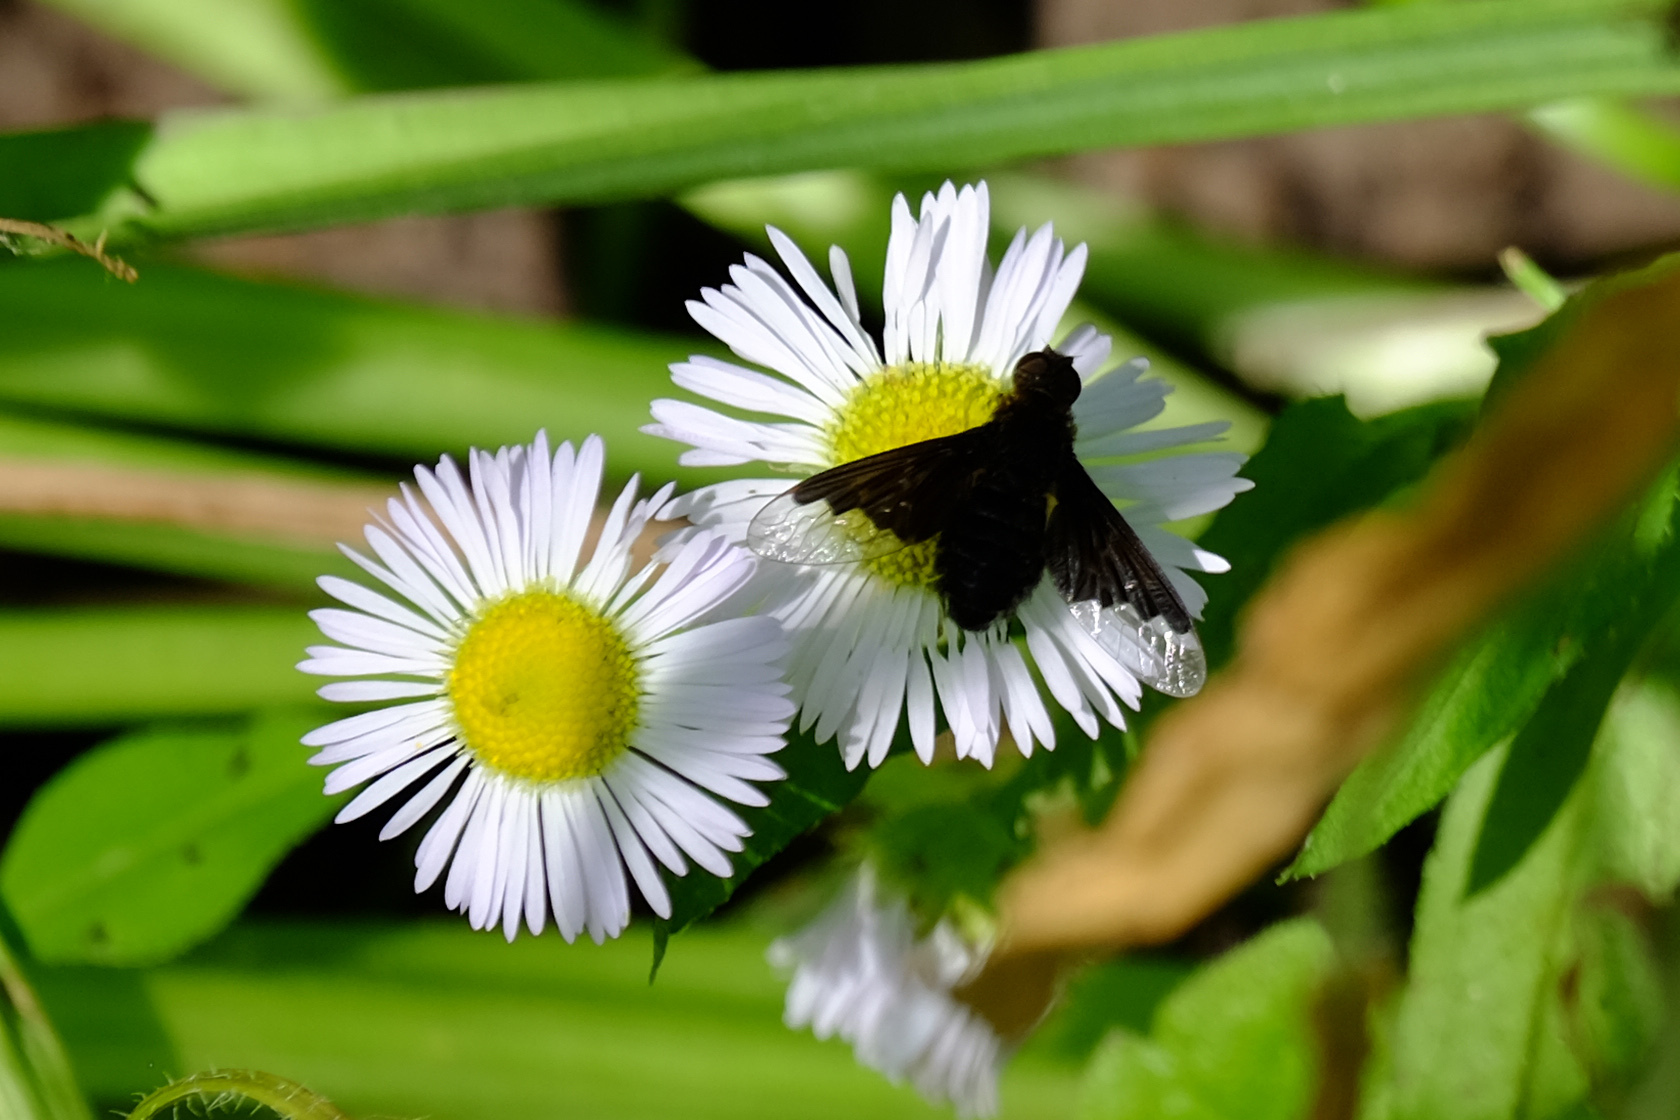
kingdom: Animalia
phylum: Arthropoda
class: Insecta
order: Diptera
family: Bombyliidae
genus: Hemipenthes
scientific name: Hemipenthes morio
